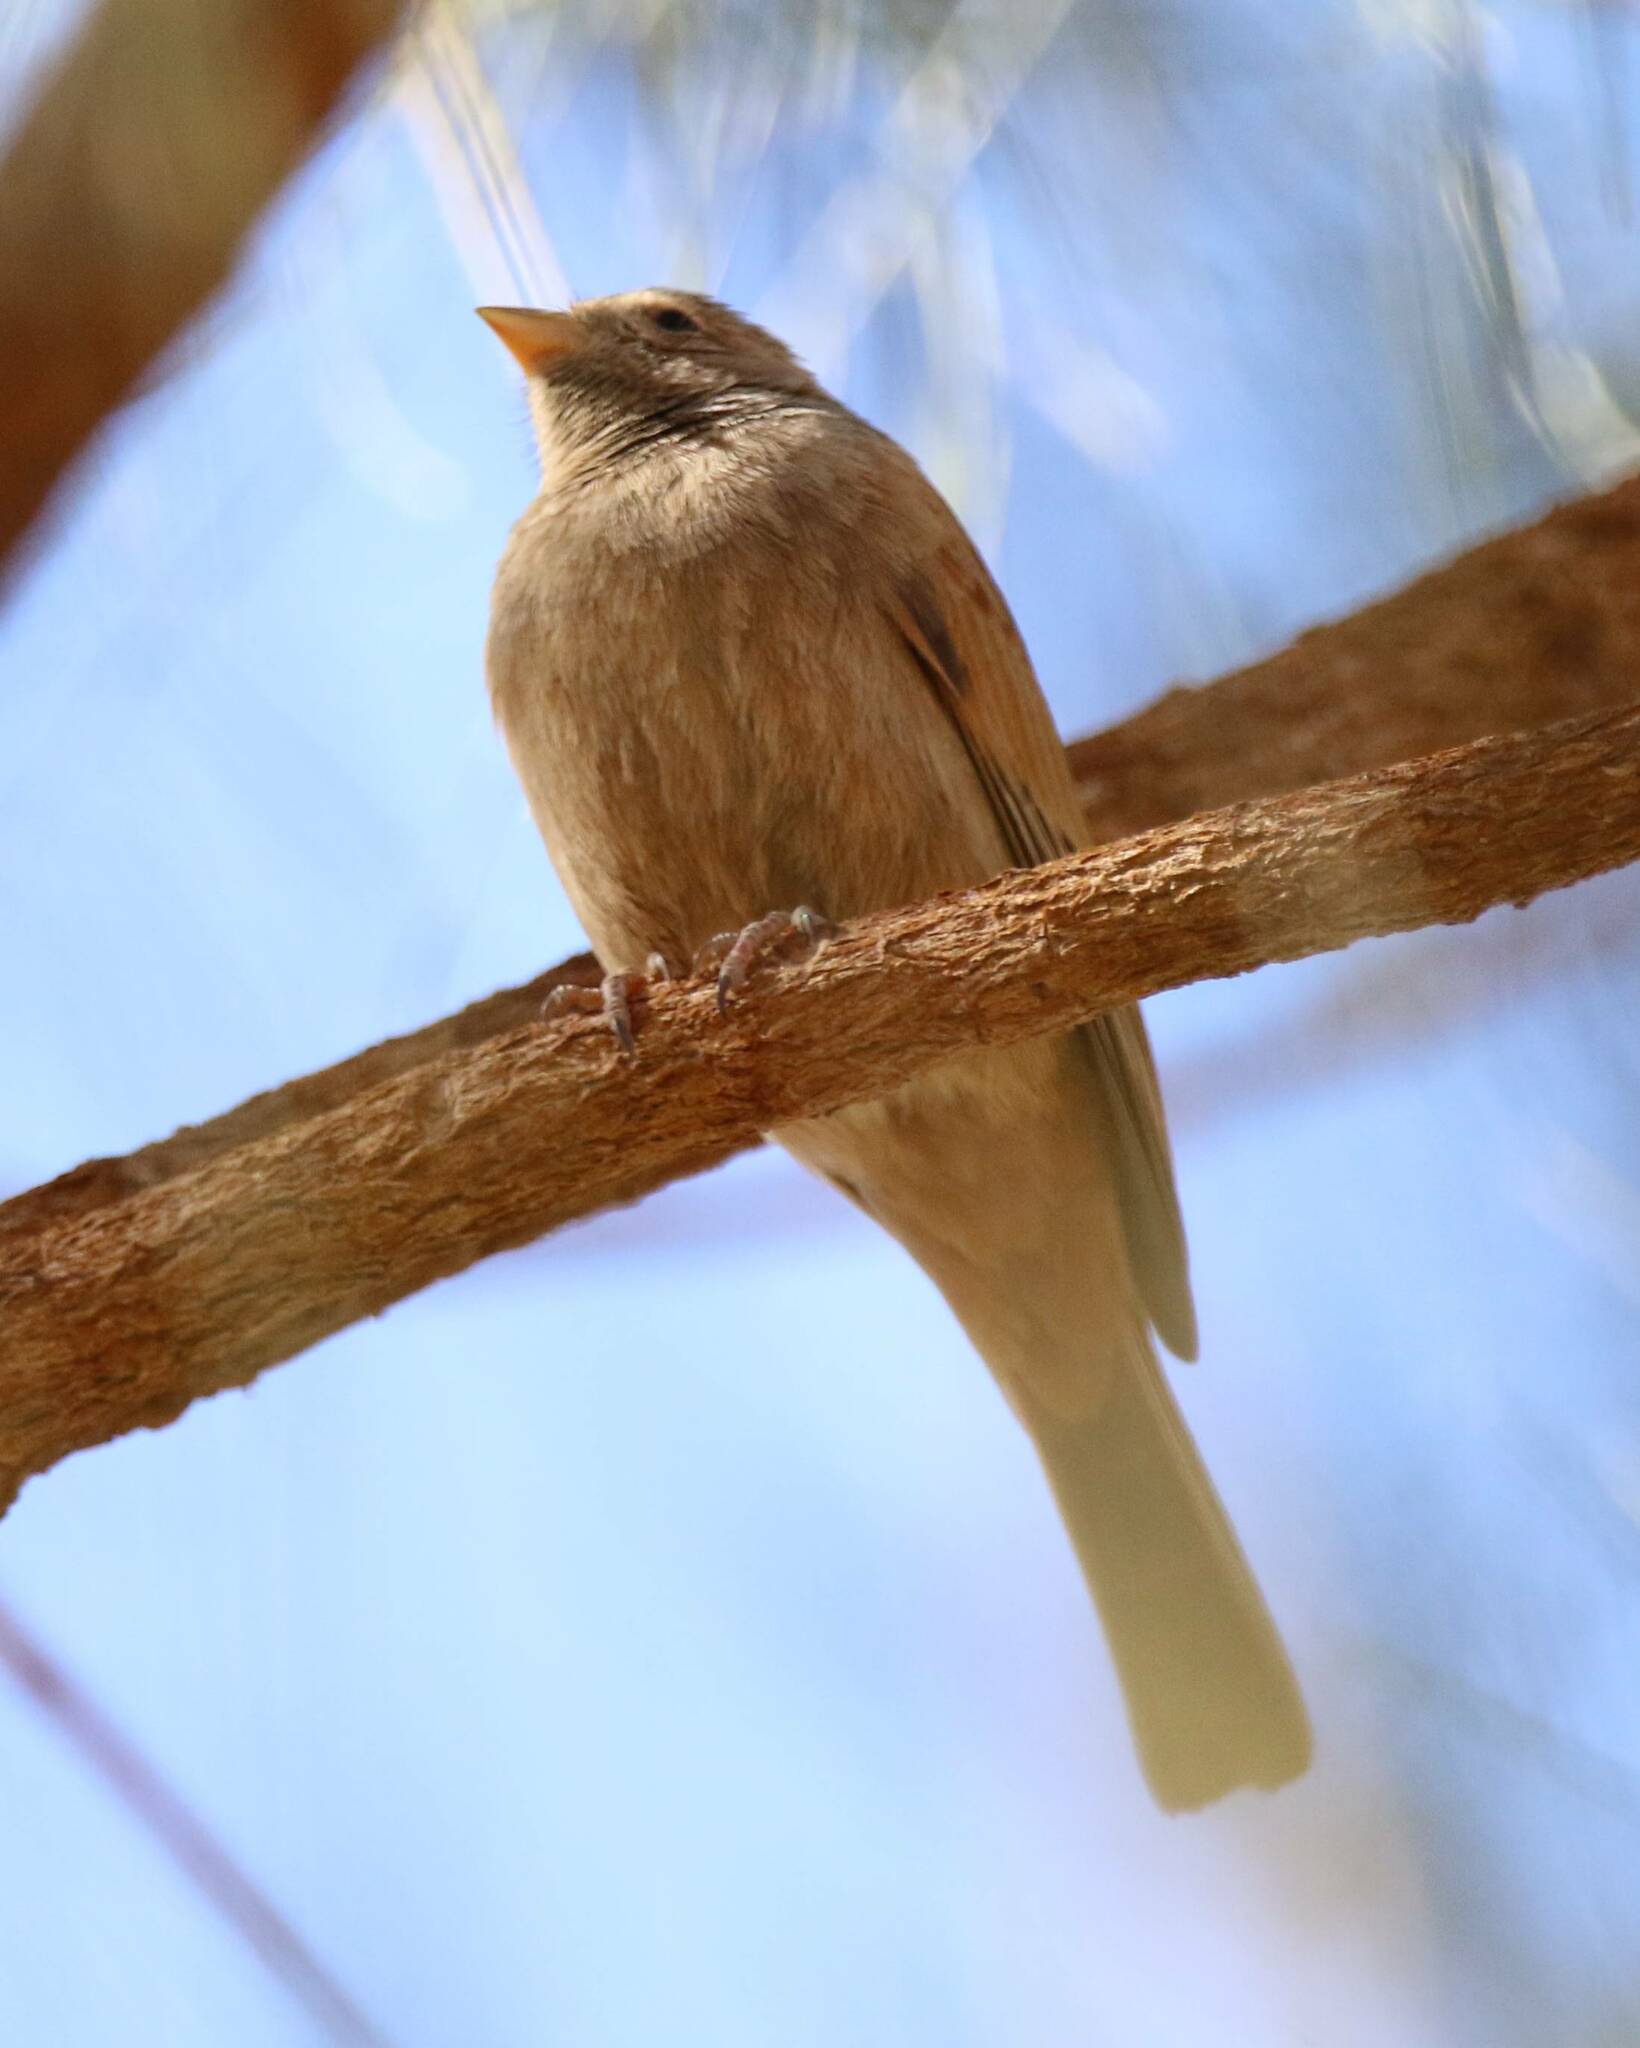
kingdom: Animalia
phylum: Chordata
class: Aves
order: Passeriformes
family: Emberizidae
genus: Emberiza
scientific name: Emberiza sahari
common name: House bunting
